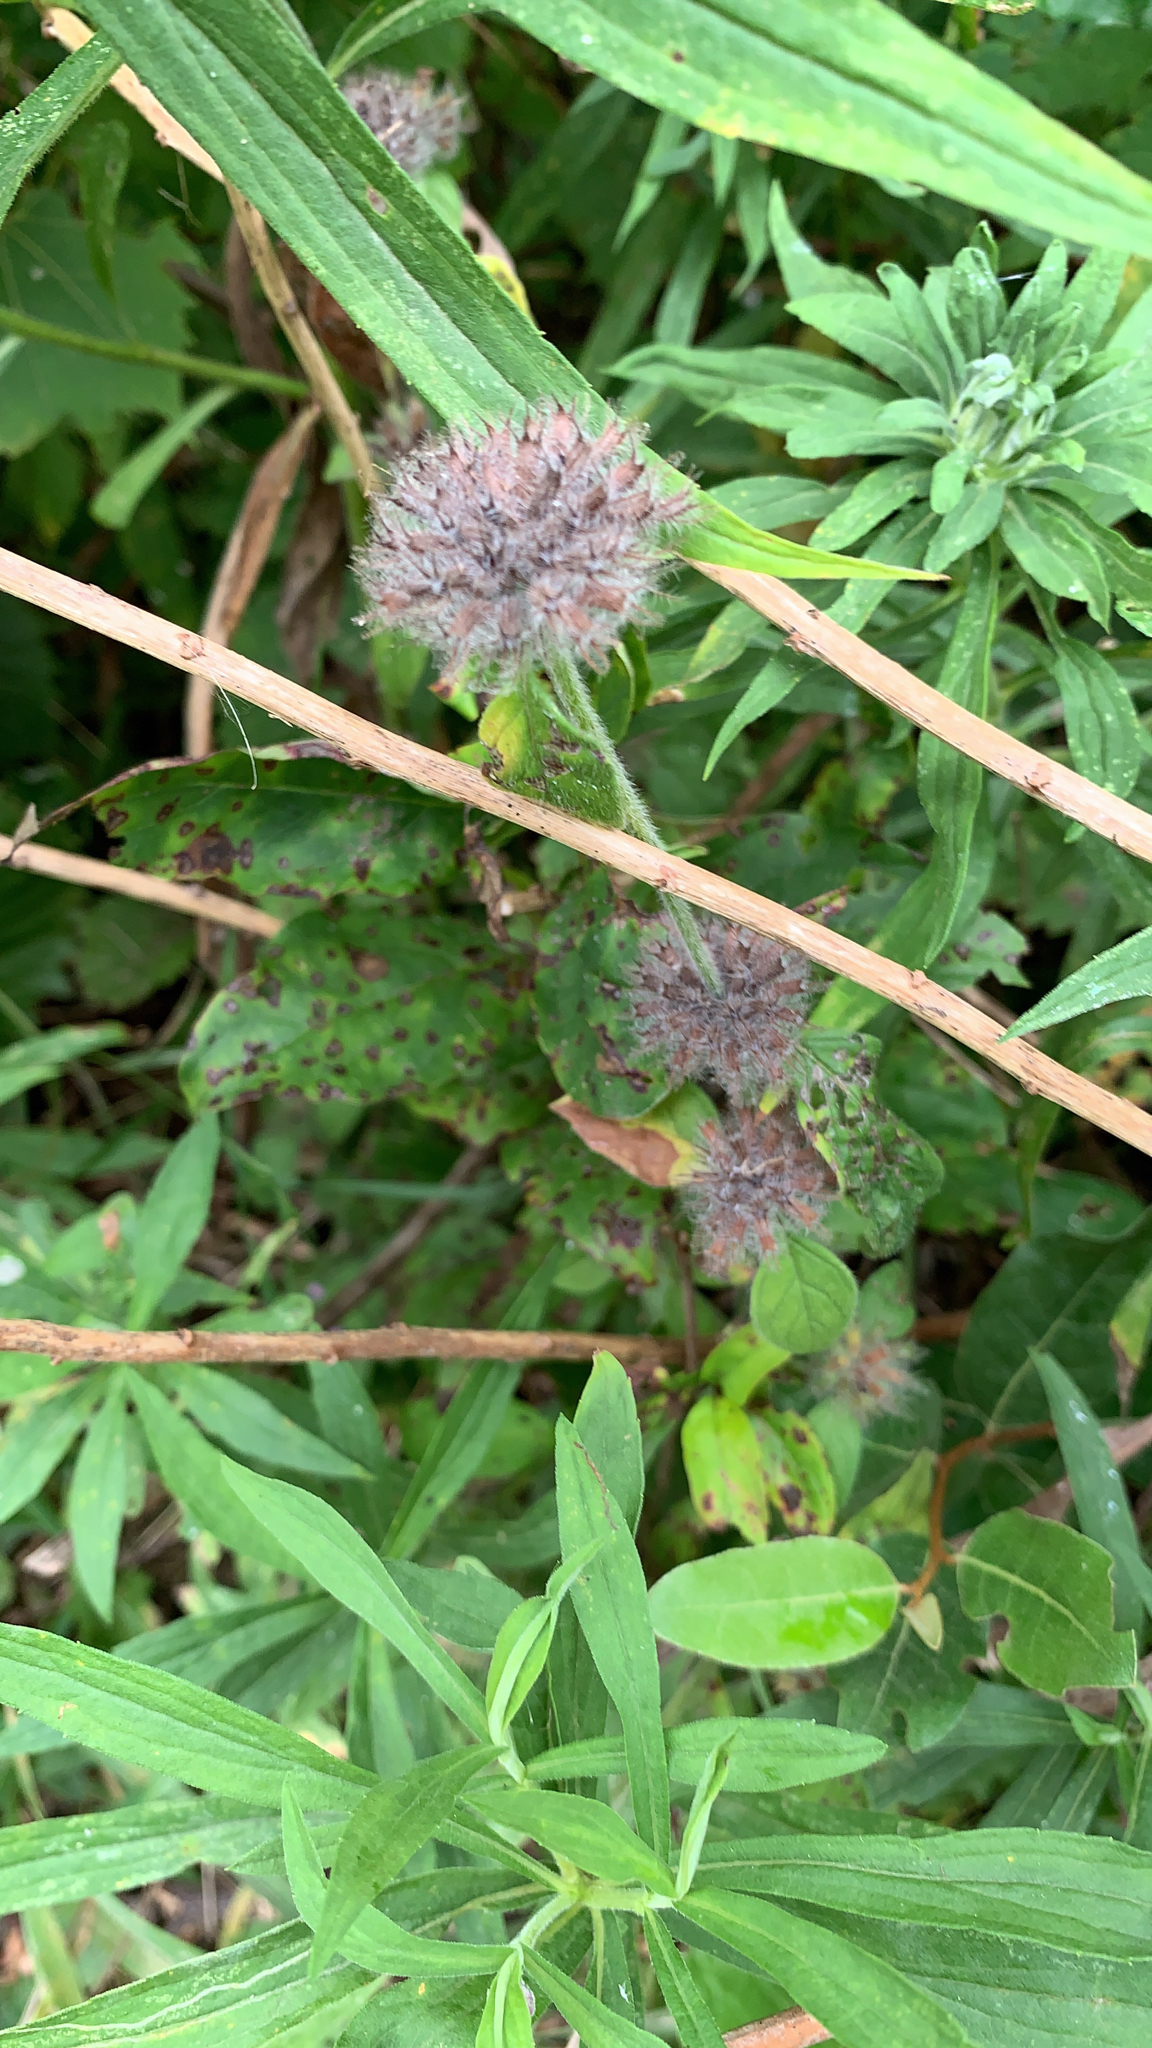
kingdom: Plantae
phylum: Tracheophyta
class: Magnoliopsida
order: Lamiales
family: Lamiaceae
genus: Clinopodium
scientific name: Clinopodium vulgare
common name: Wild basil
